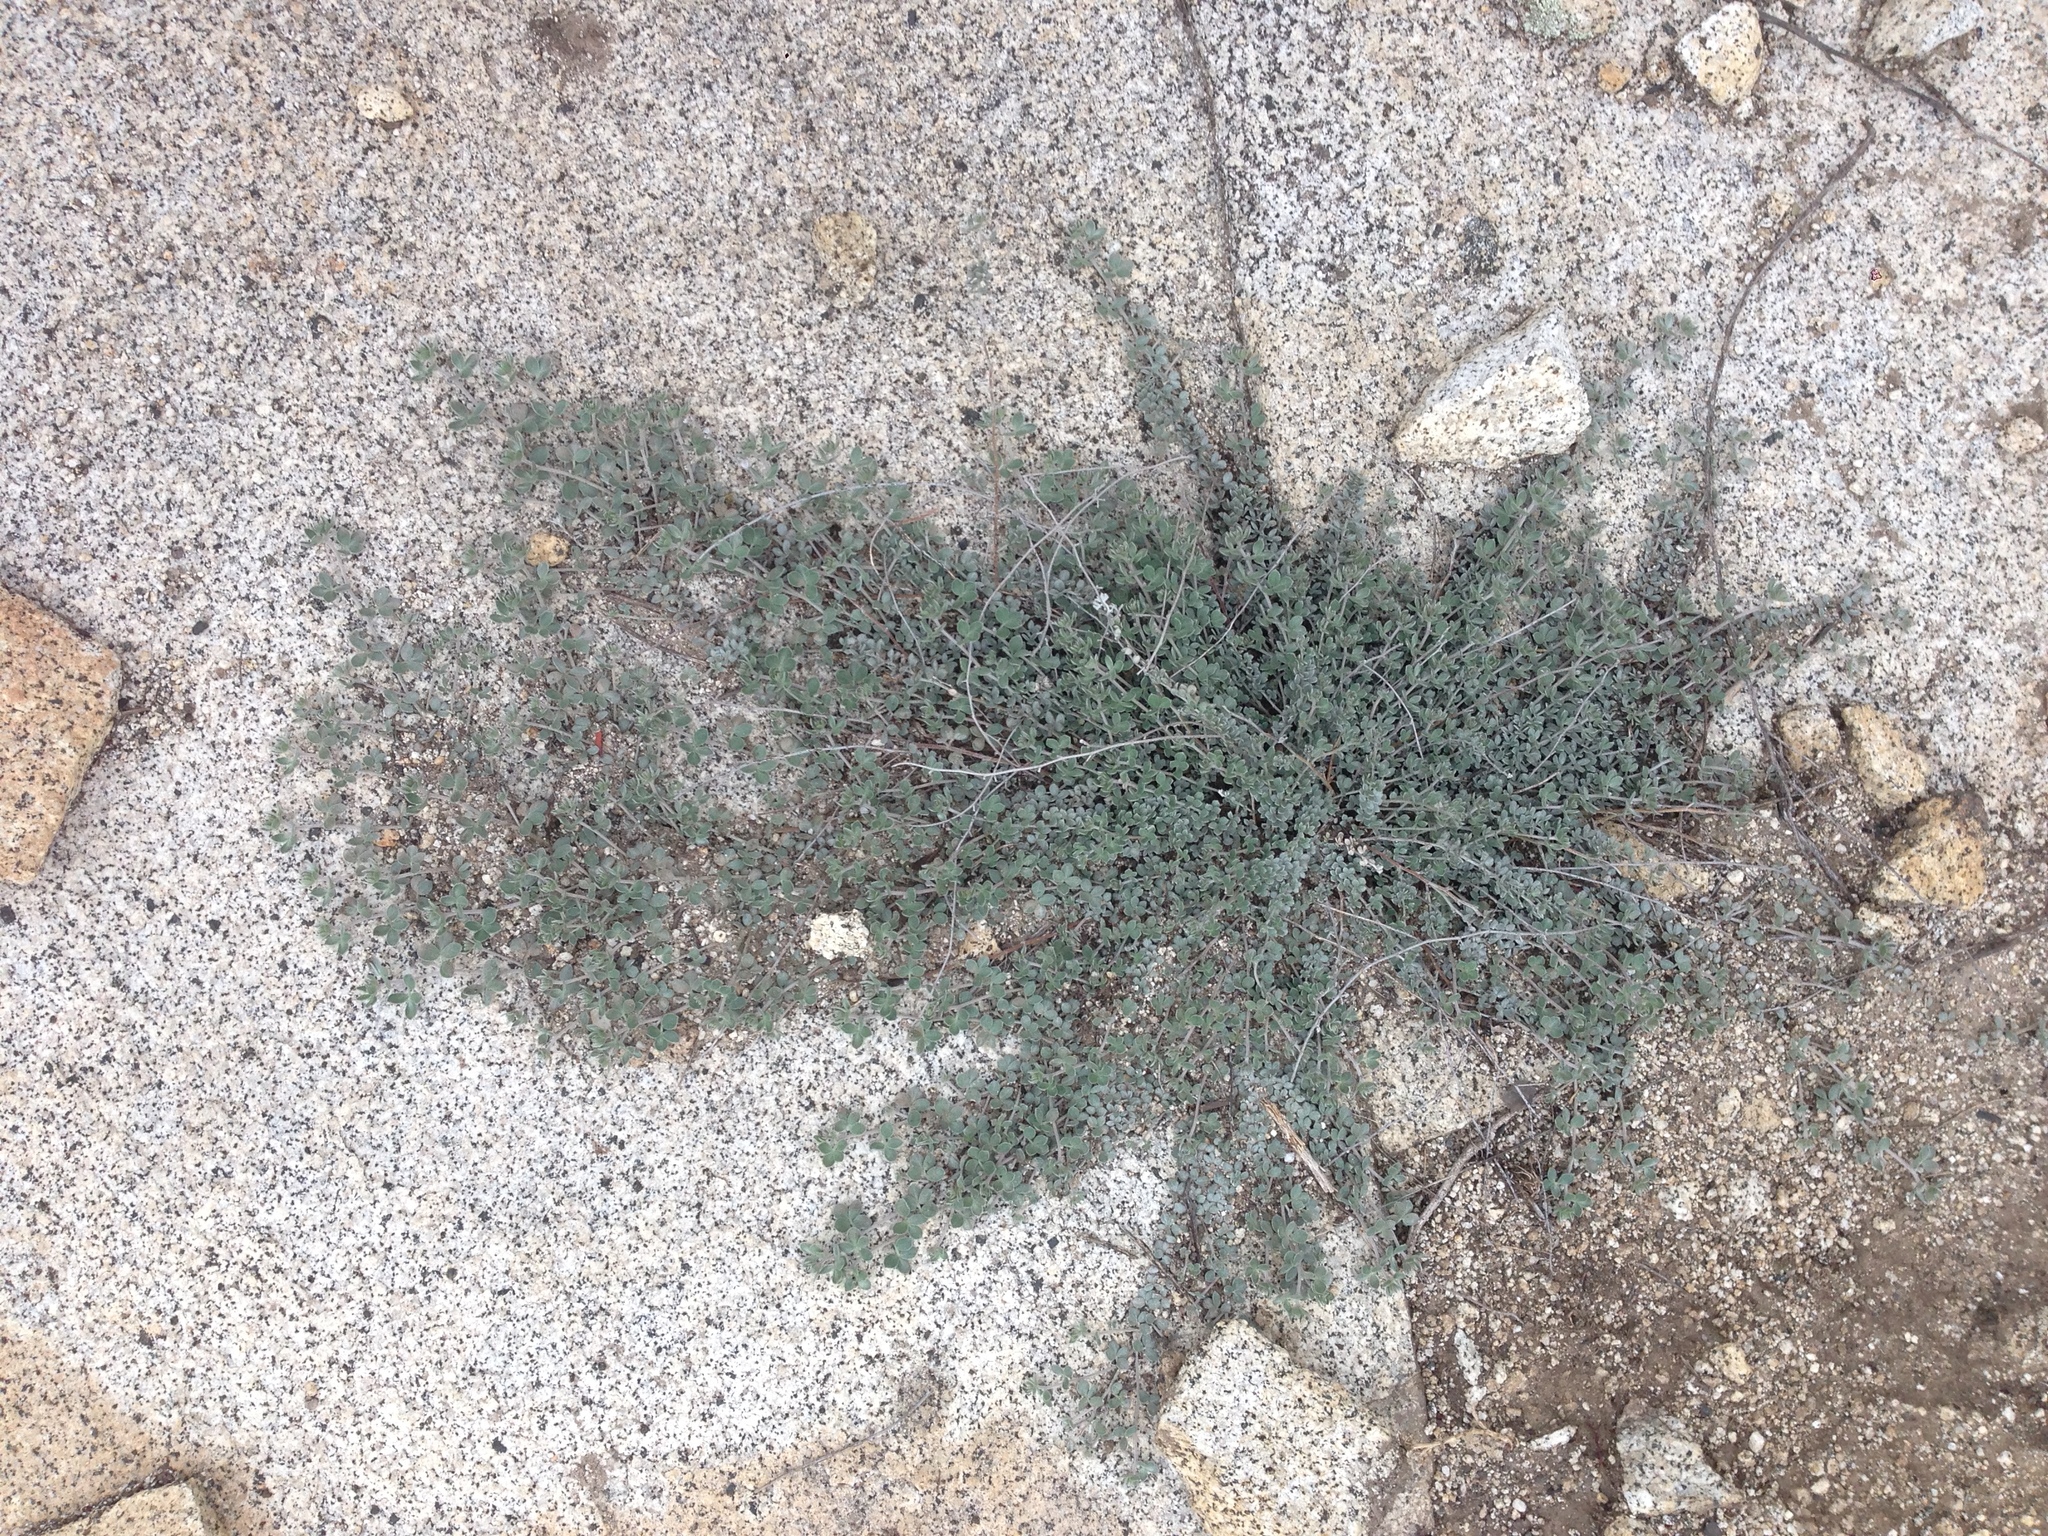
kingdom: Plantae
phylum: Tracheophyta
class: Magnoliopsida
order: Fabales
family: Fabaceae
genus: Acmispon
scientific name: Acmispon argophyllus
